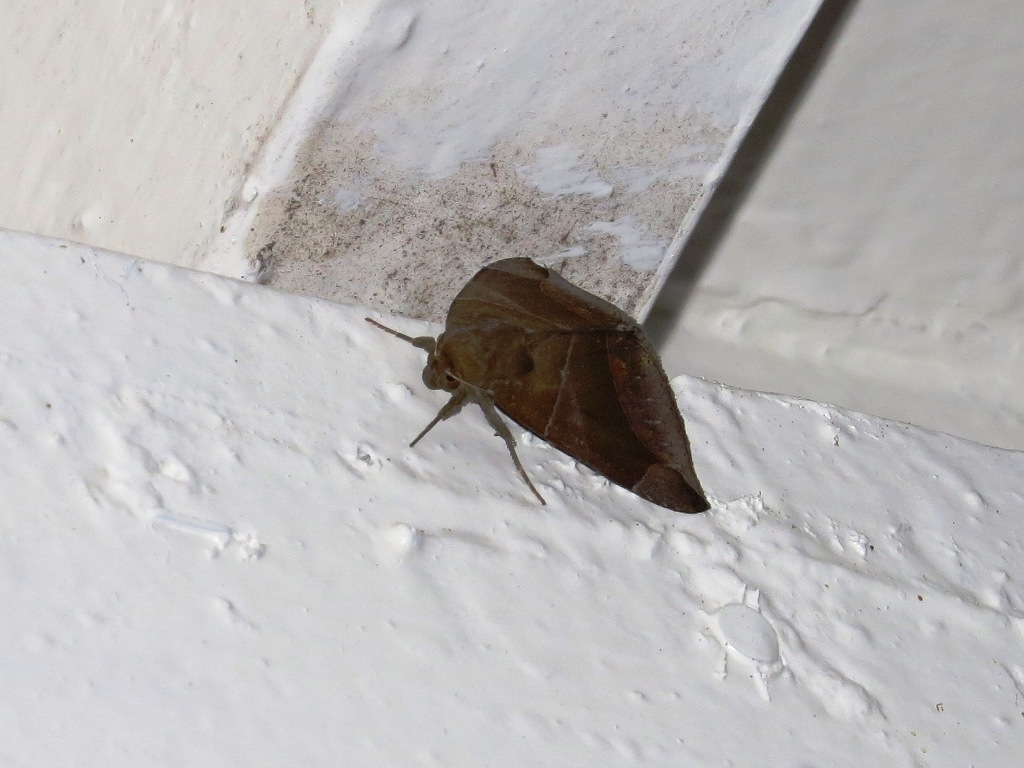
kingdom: Animalia
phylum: Arthropoda
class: Insecta
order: Lepidoptera
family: Erebidae
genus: Dysgonia
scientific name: Dysgonia purpurata
